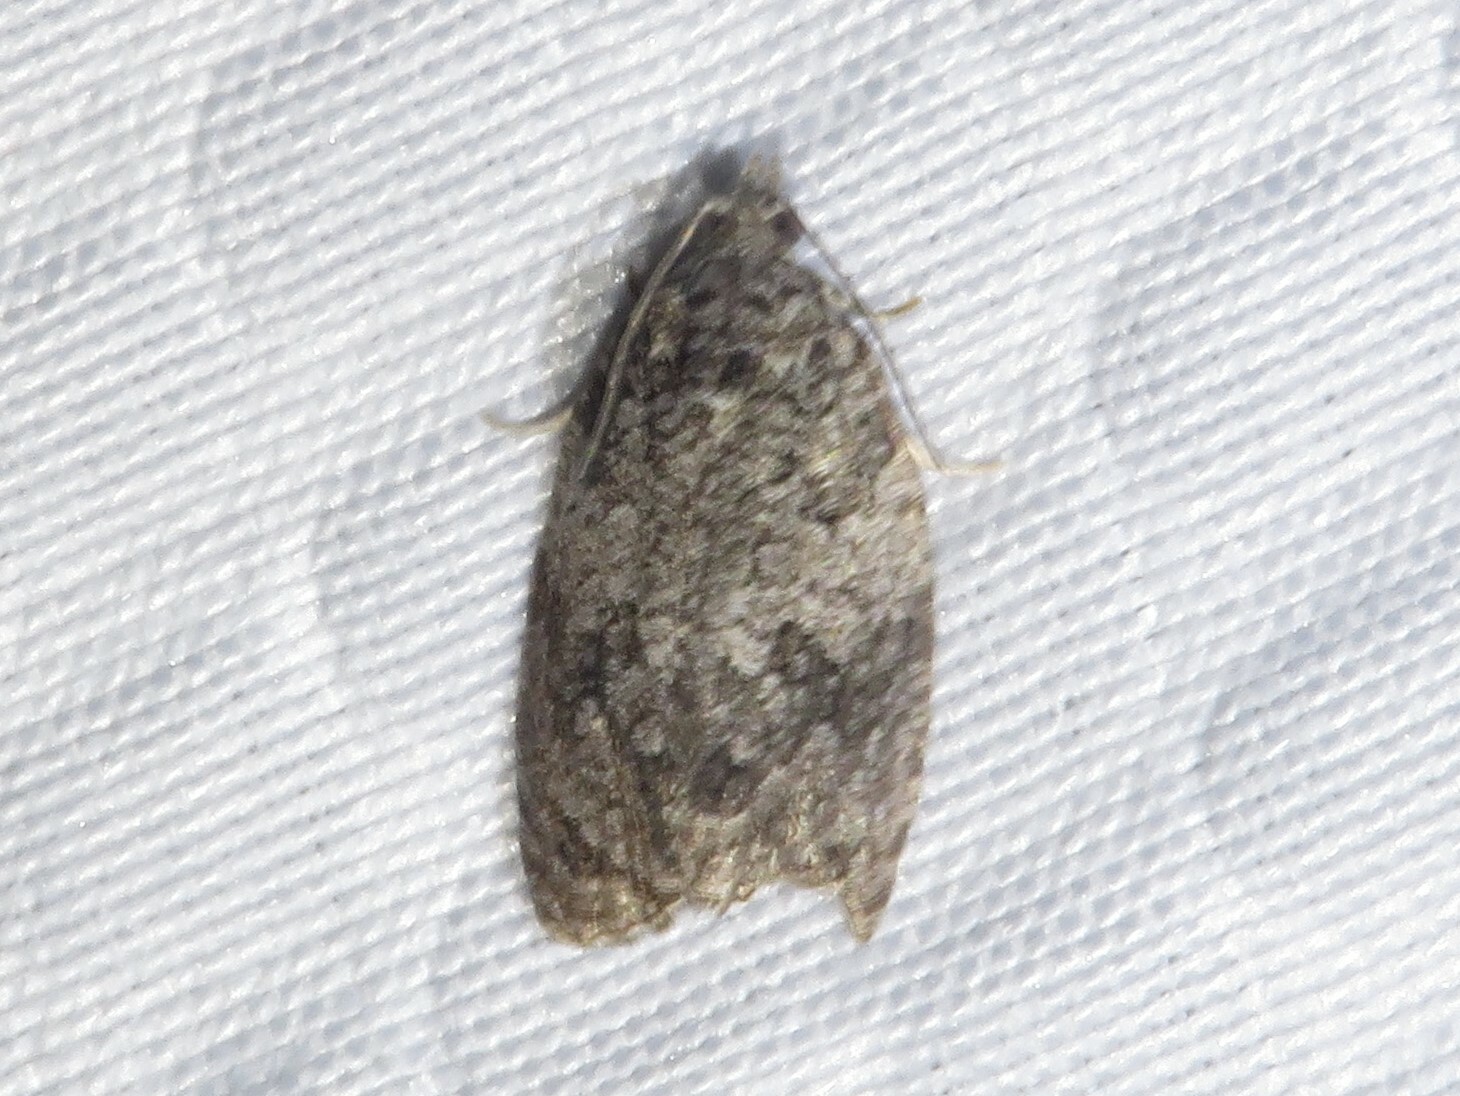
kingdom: Animalia
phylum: Arthropoda
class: Insecta
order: Lepidoptera
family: Tortricidae
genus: Apotomis
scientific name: Apotomis removana
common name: Green aspen leafroller
